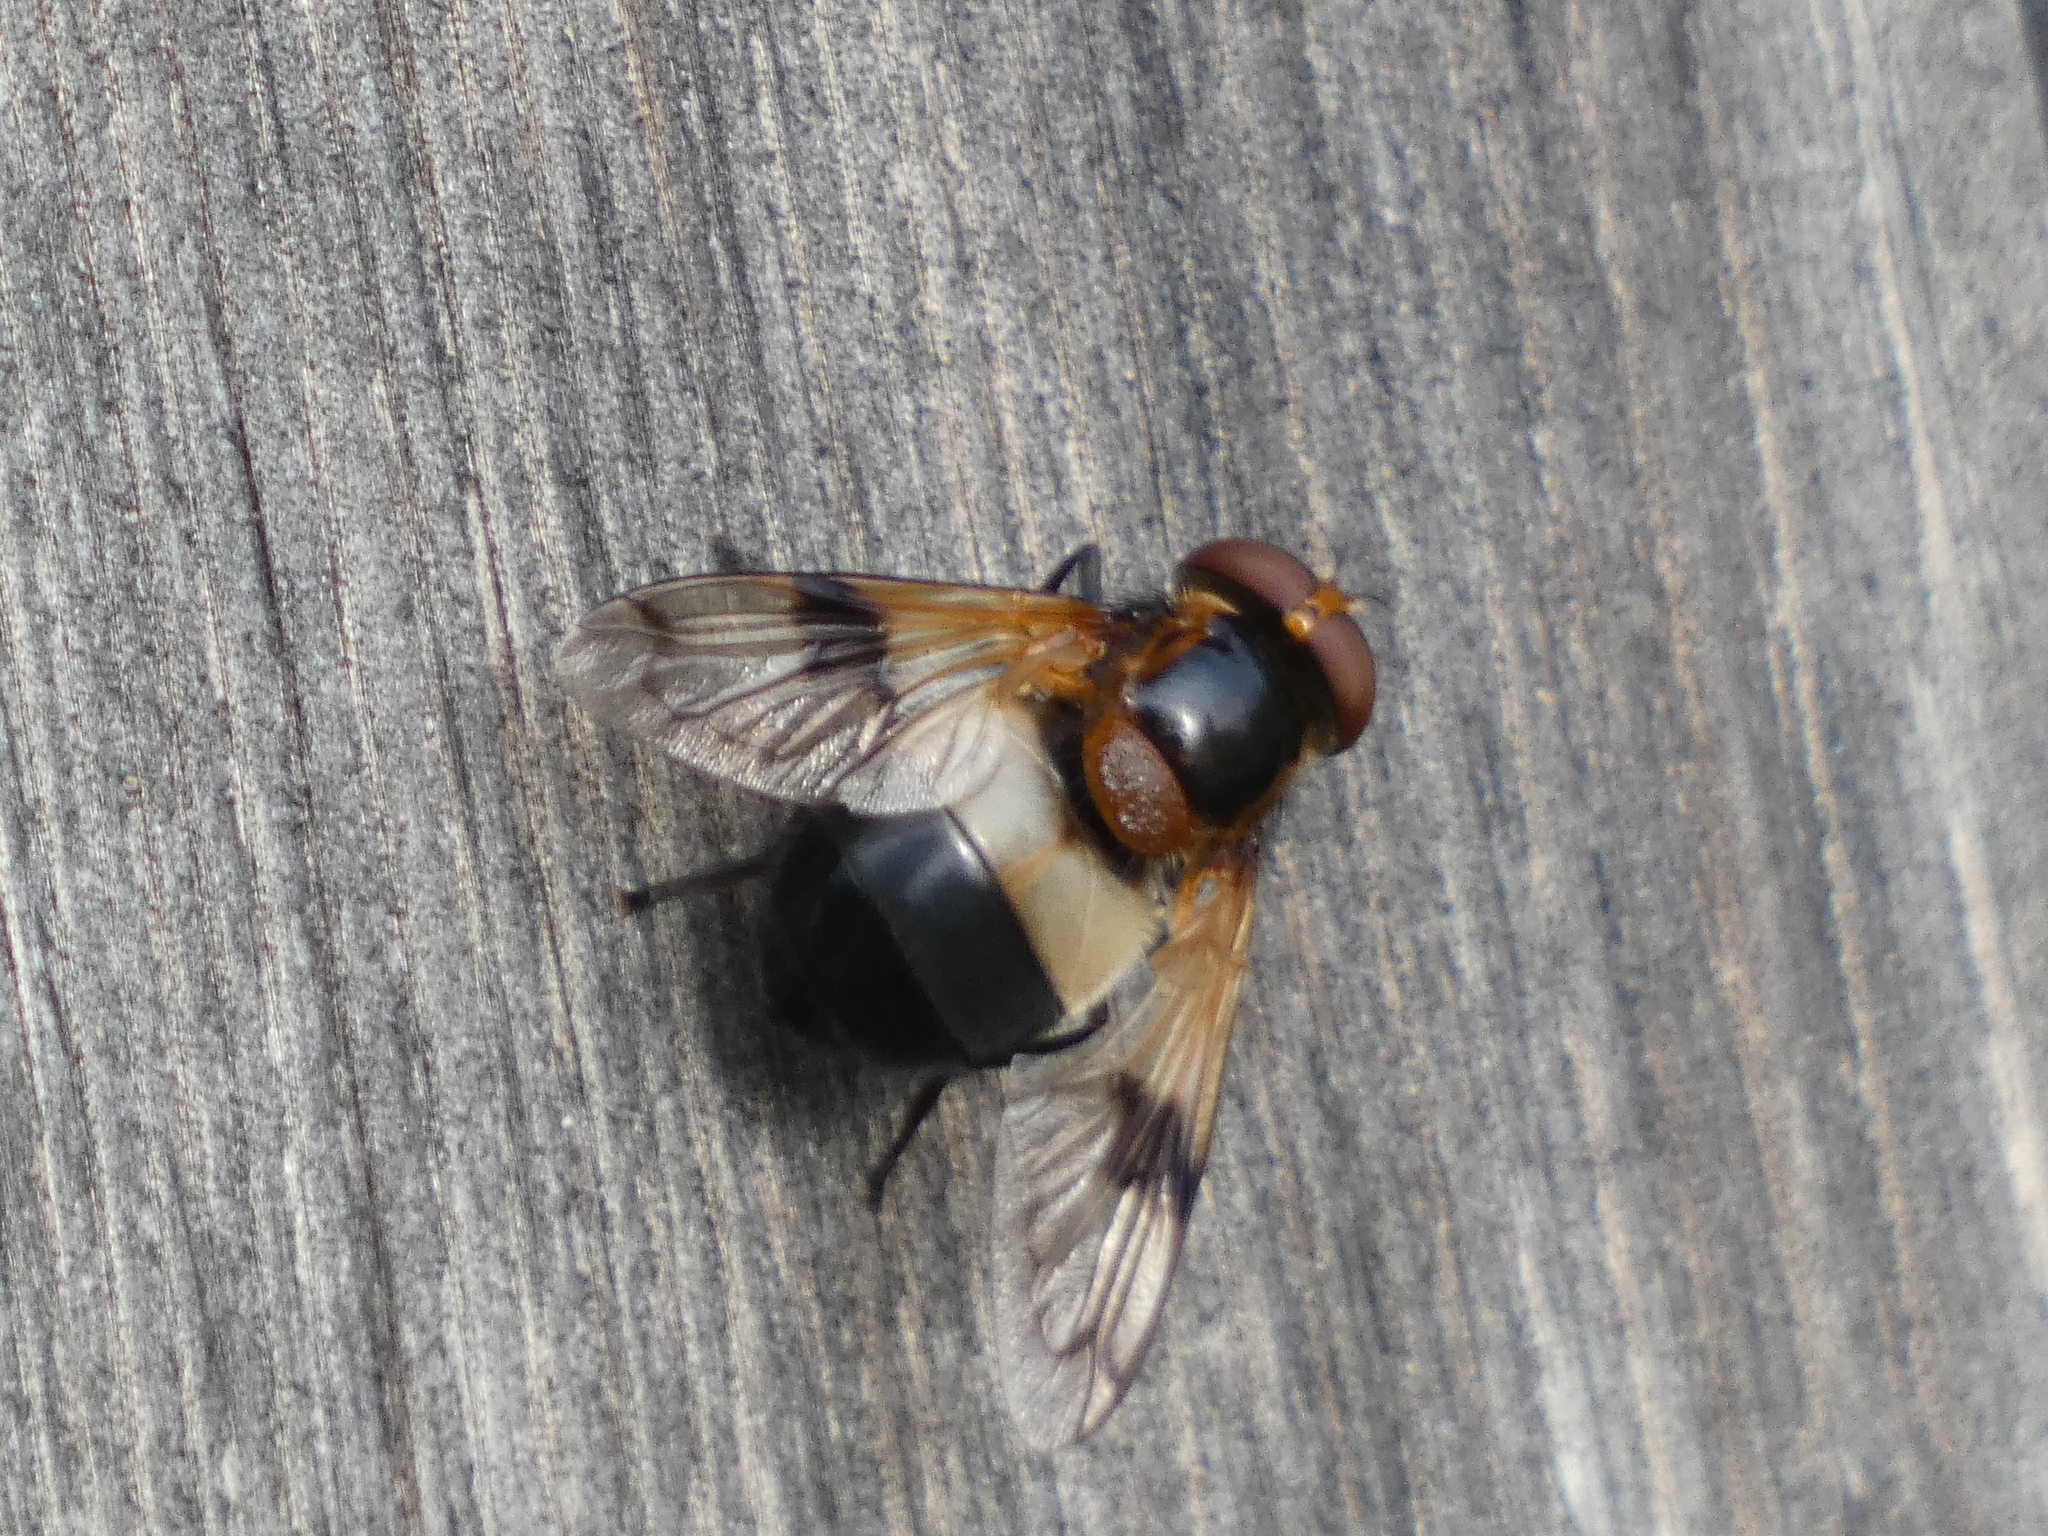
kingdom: Animalia
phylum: Arthropoda
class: Insecta
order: Diptera
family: Syrphidae
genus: Volucella
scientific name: Volucella pellucens
